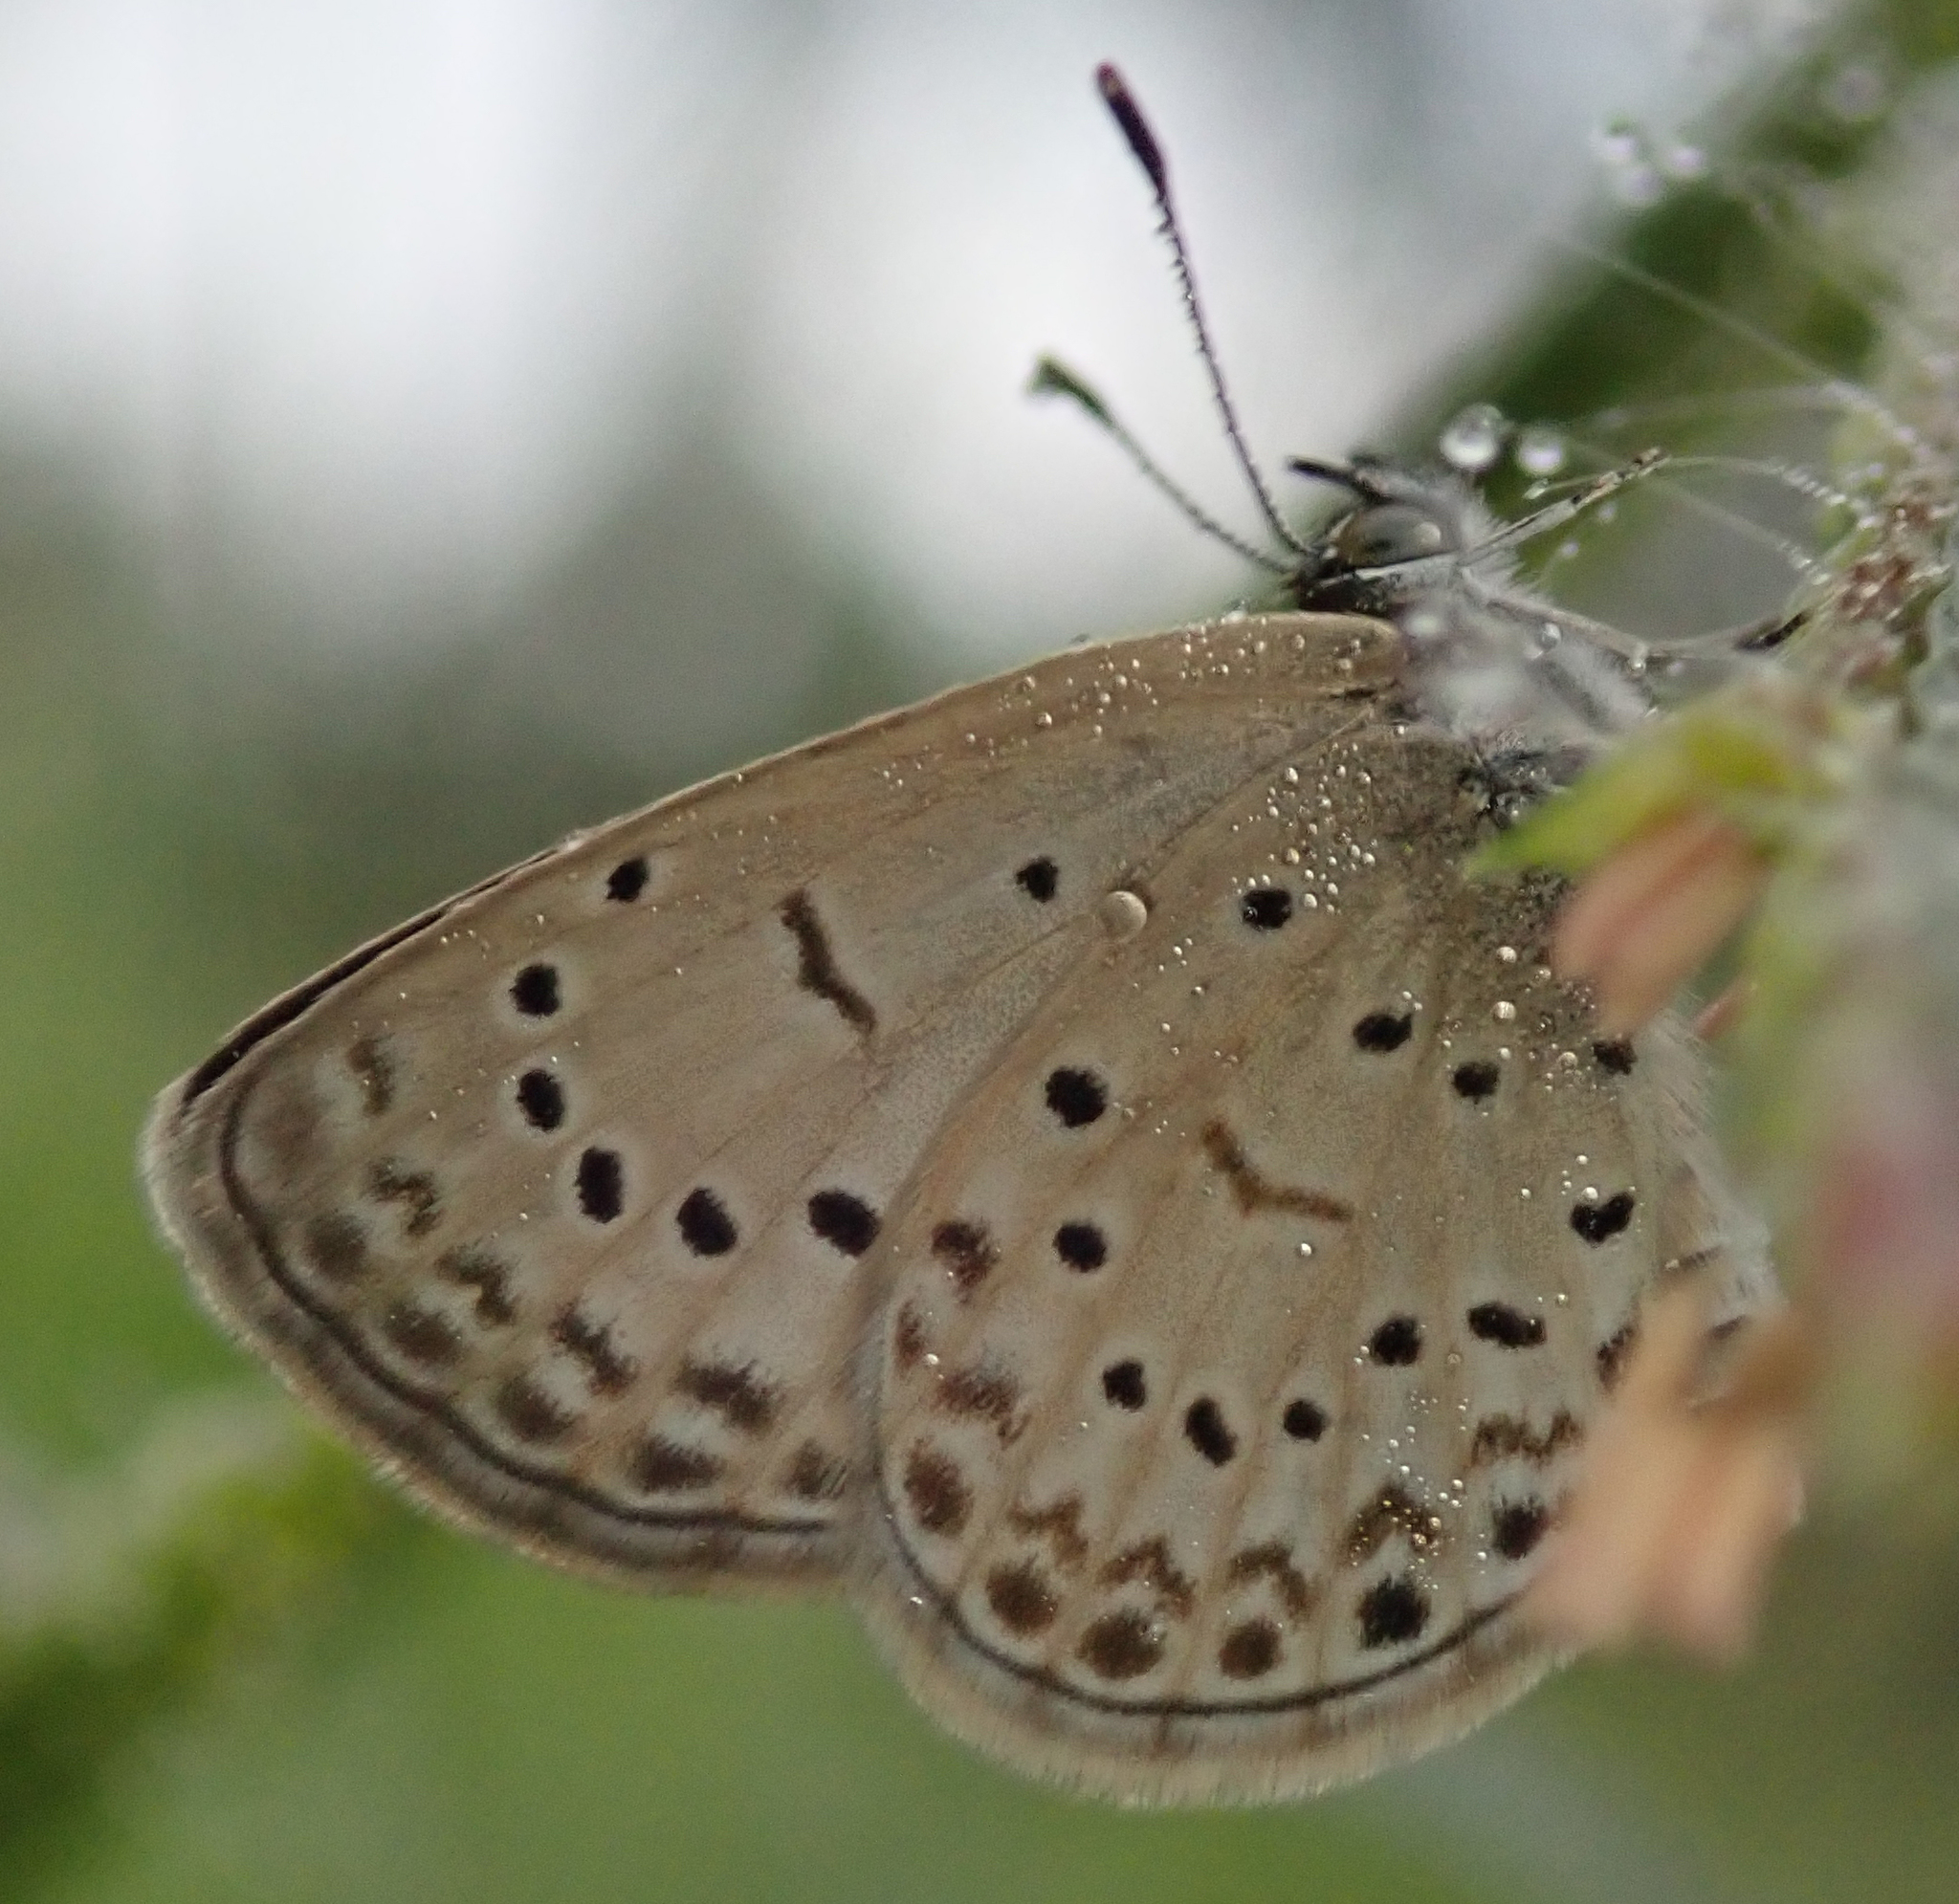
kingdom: Animalia
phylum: Arthropoda
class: Insecta
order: Lepidoptera
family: Lycaenidae
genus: Zizeeria
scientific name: Zizeeria knysna
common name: African grass blue
